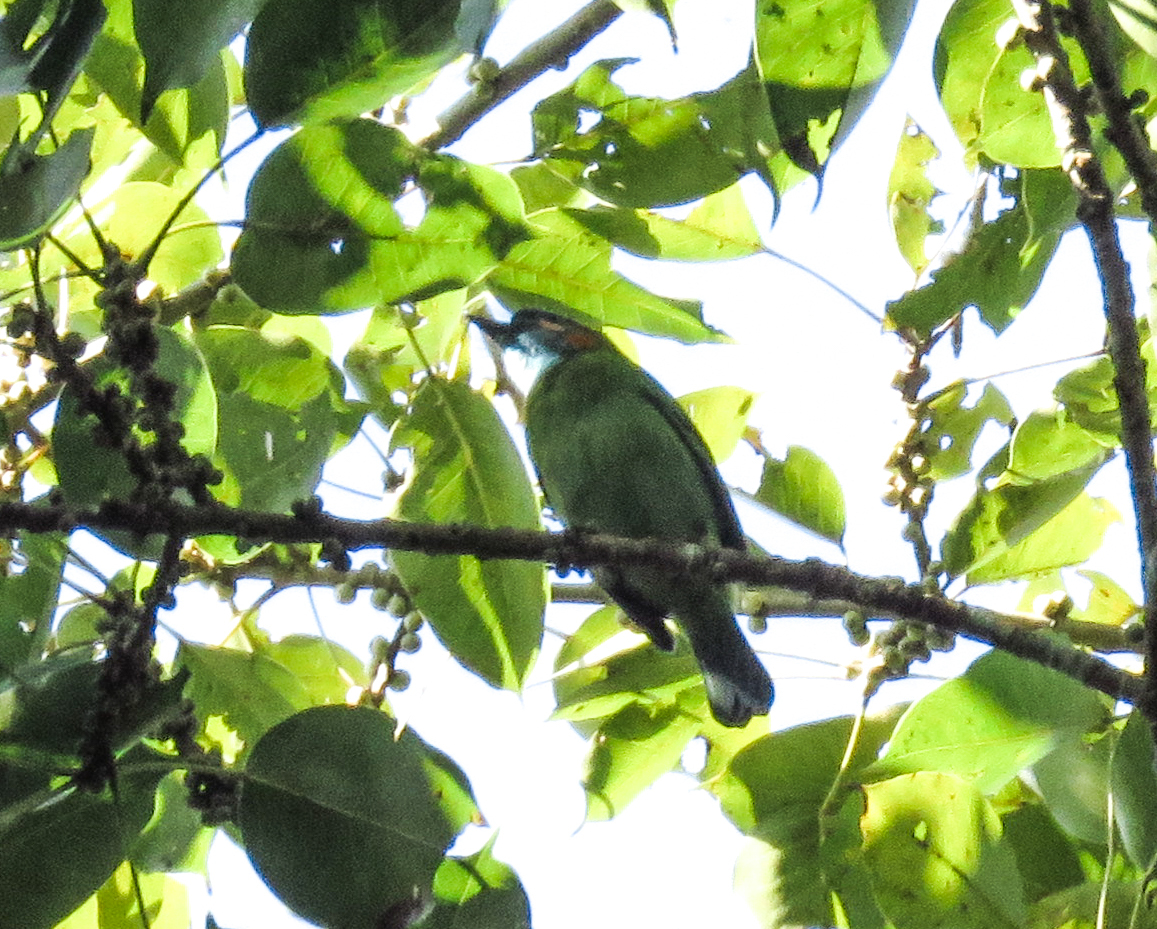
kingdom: Animalia
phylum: Chordata
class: Aves
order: Piciformes
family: Megalaimidae
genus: Psilopogon
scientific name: Psilopogon duvaucelii
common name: Blue-eared barbet
